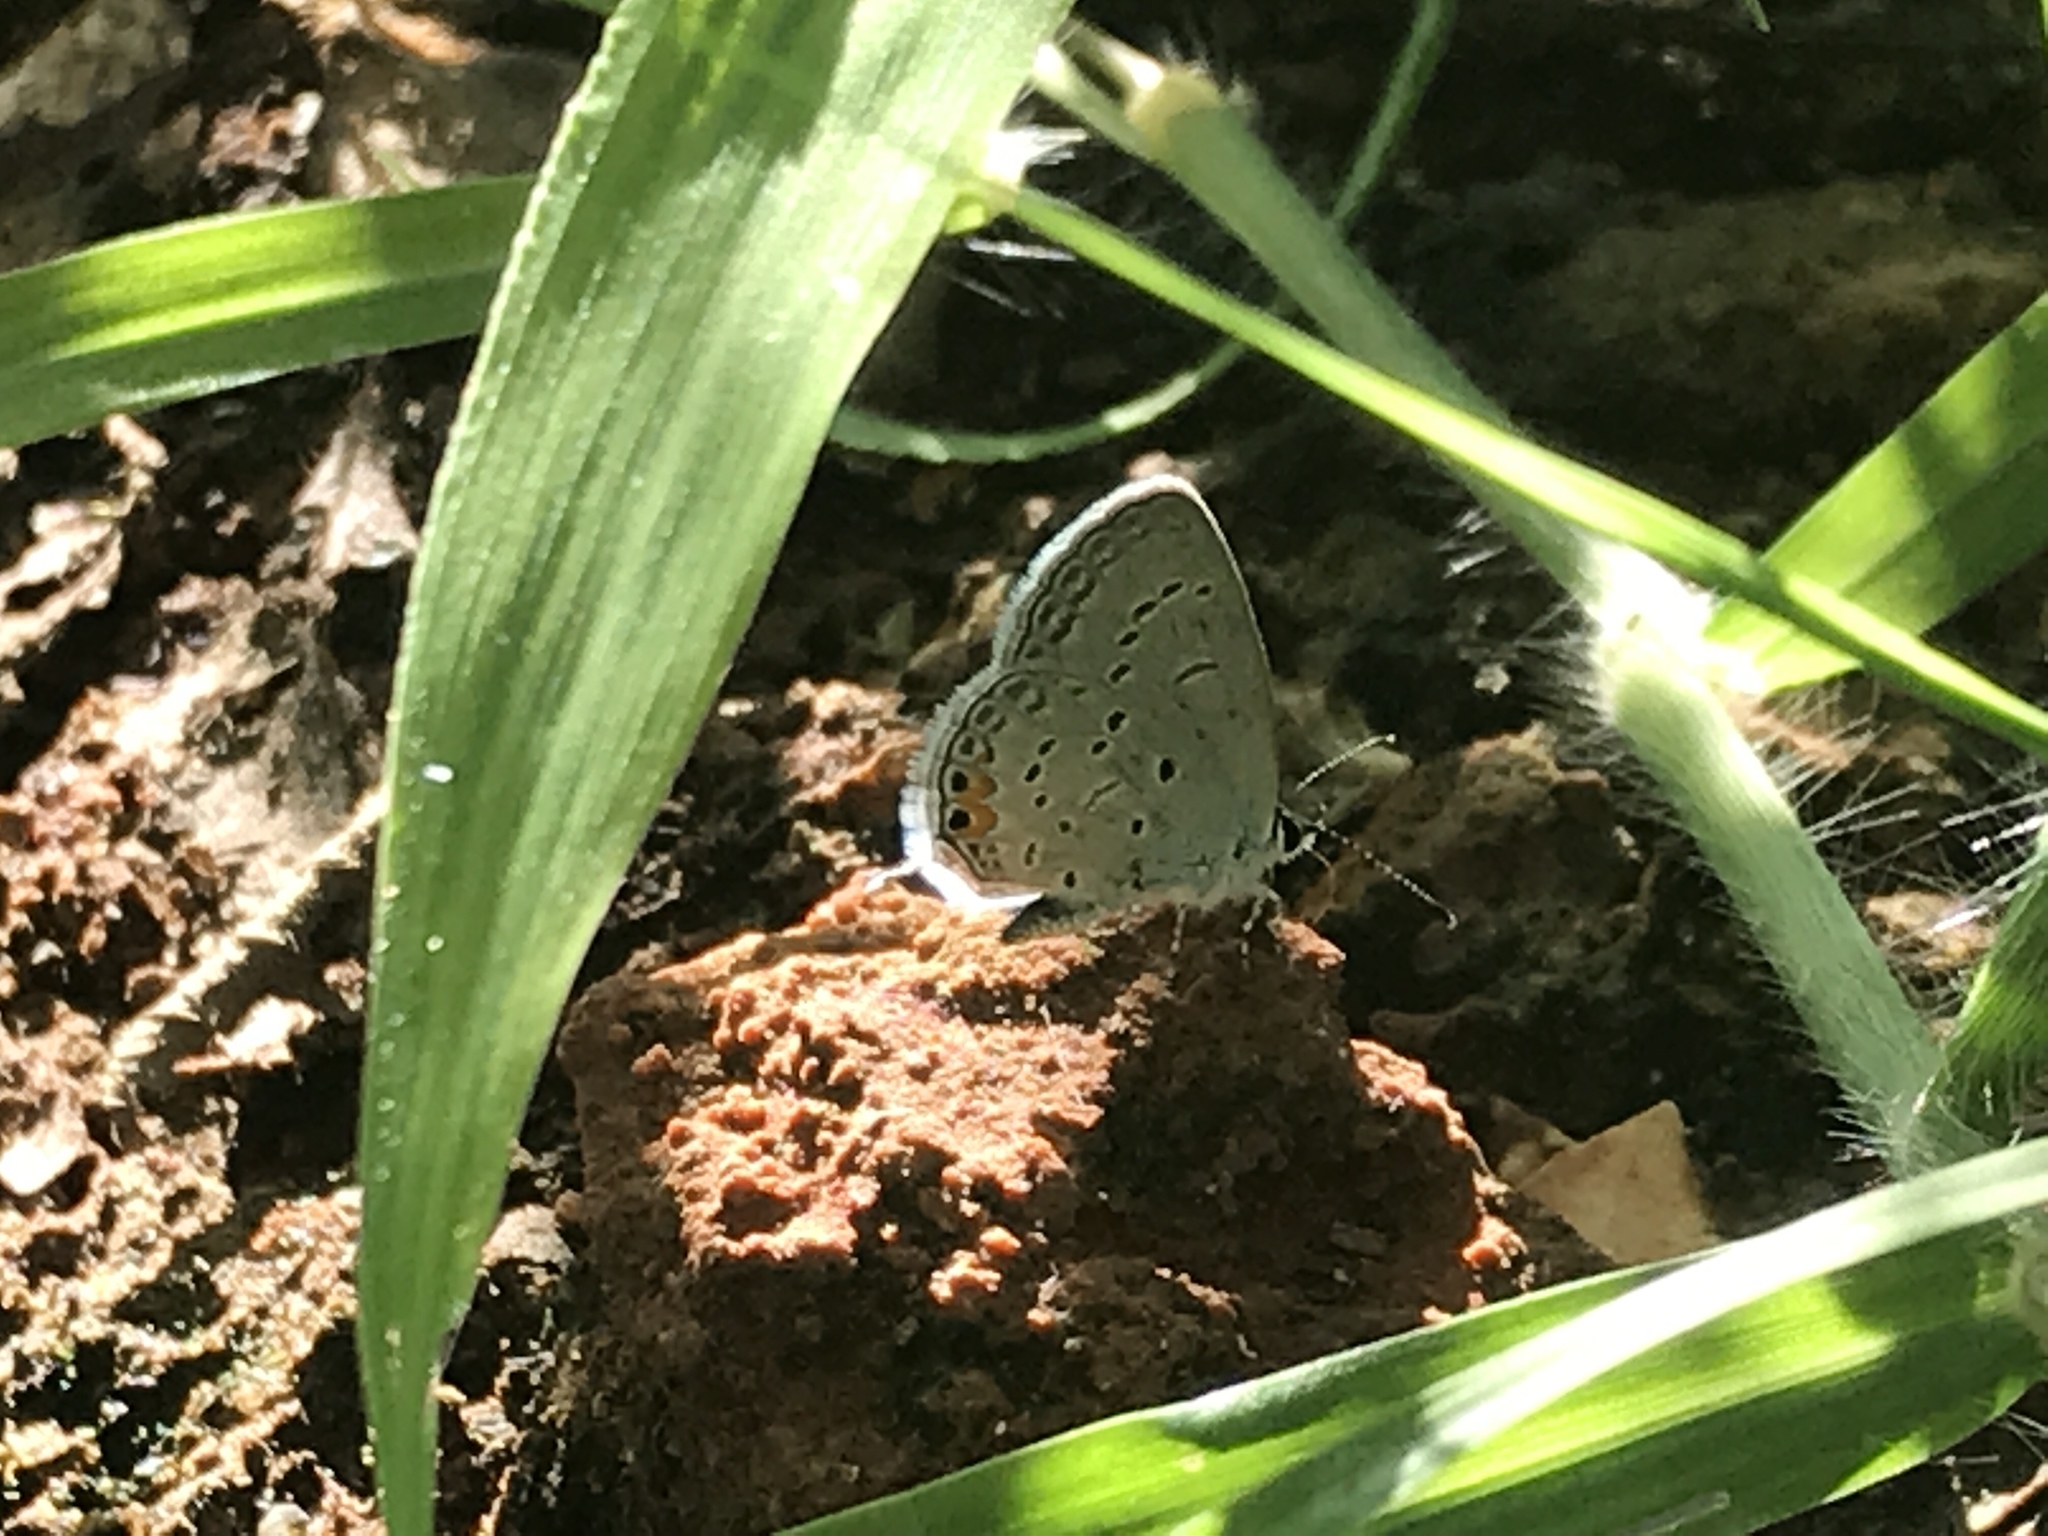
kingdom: Animalia
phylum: Arthropoda
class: Insecta
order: Lepidoptera
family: Lycaenidae
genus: Elkalyce
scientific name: Elkalyce comyntas
